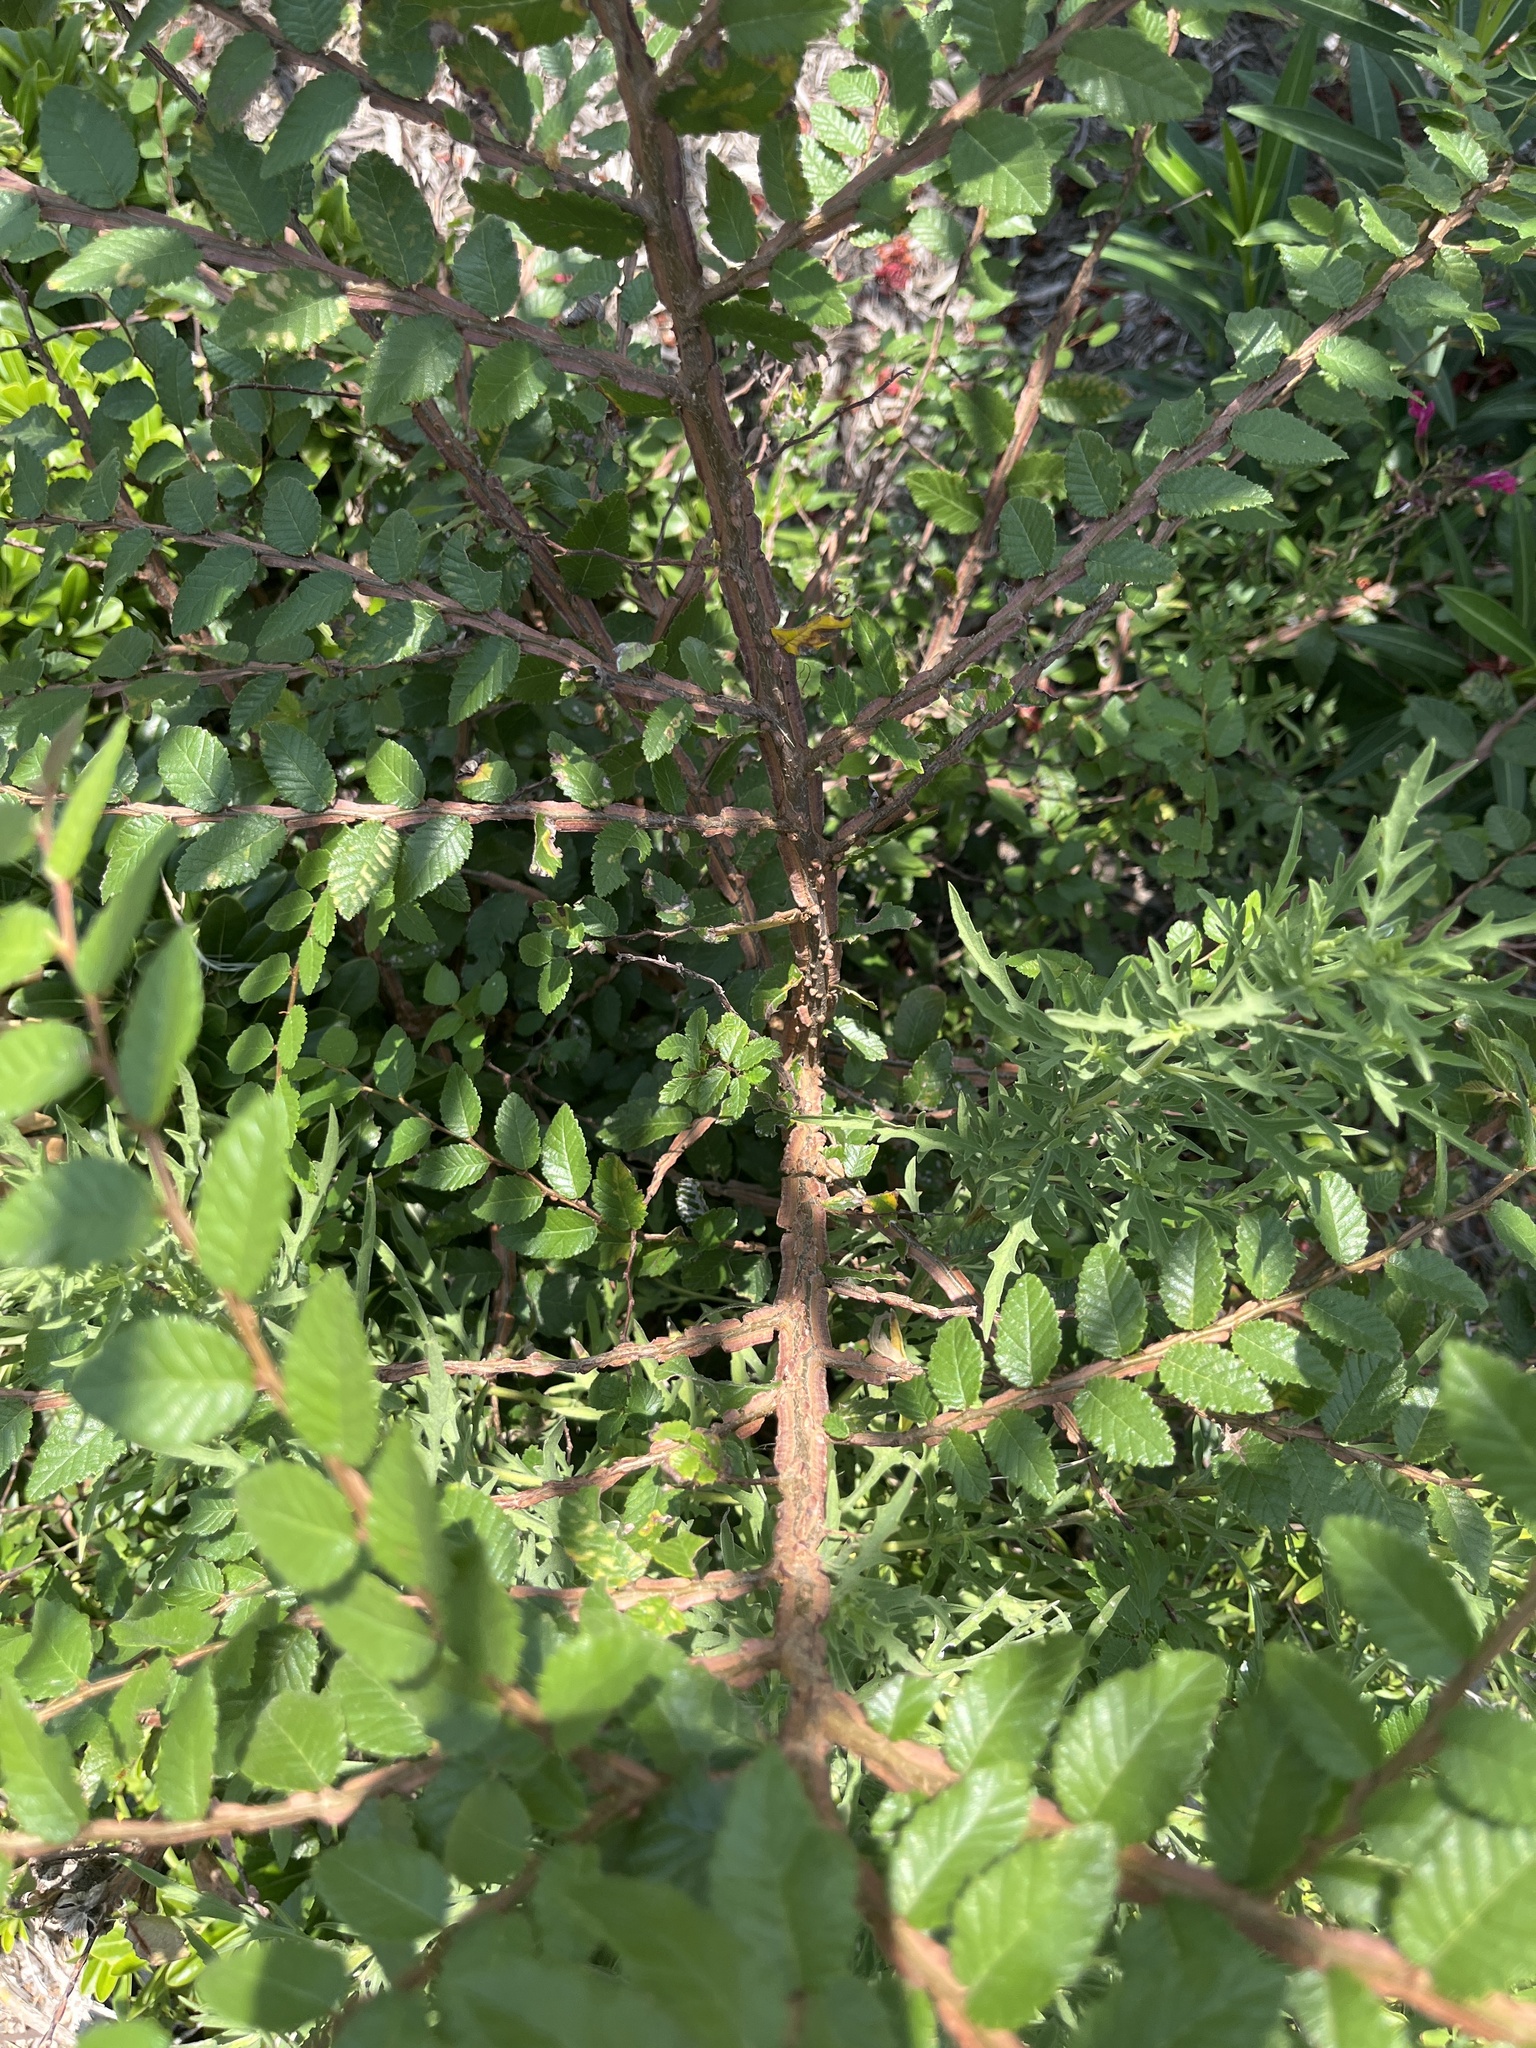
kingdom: Plantae
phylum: Tracheophyta
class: Magnoliopsida
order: Rosales
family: Ulmaceae
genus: Ulmus
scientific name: Ulmus crassifolia
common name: Basket elm
